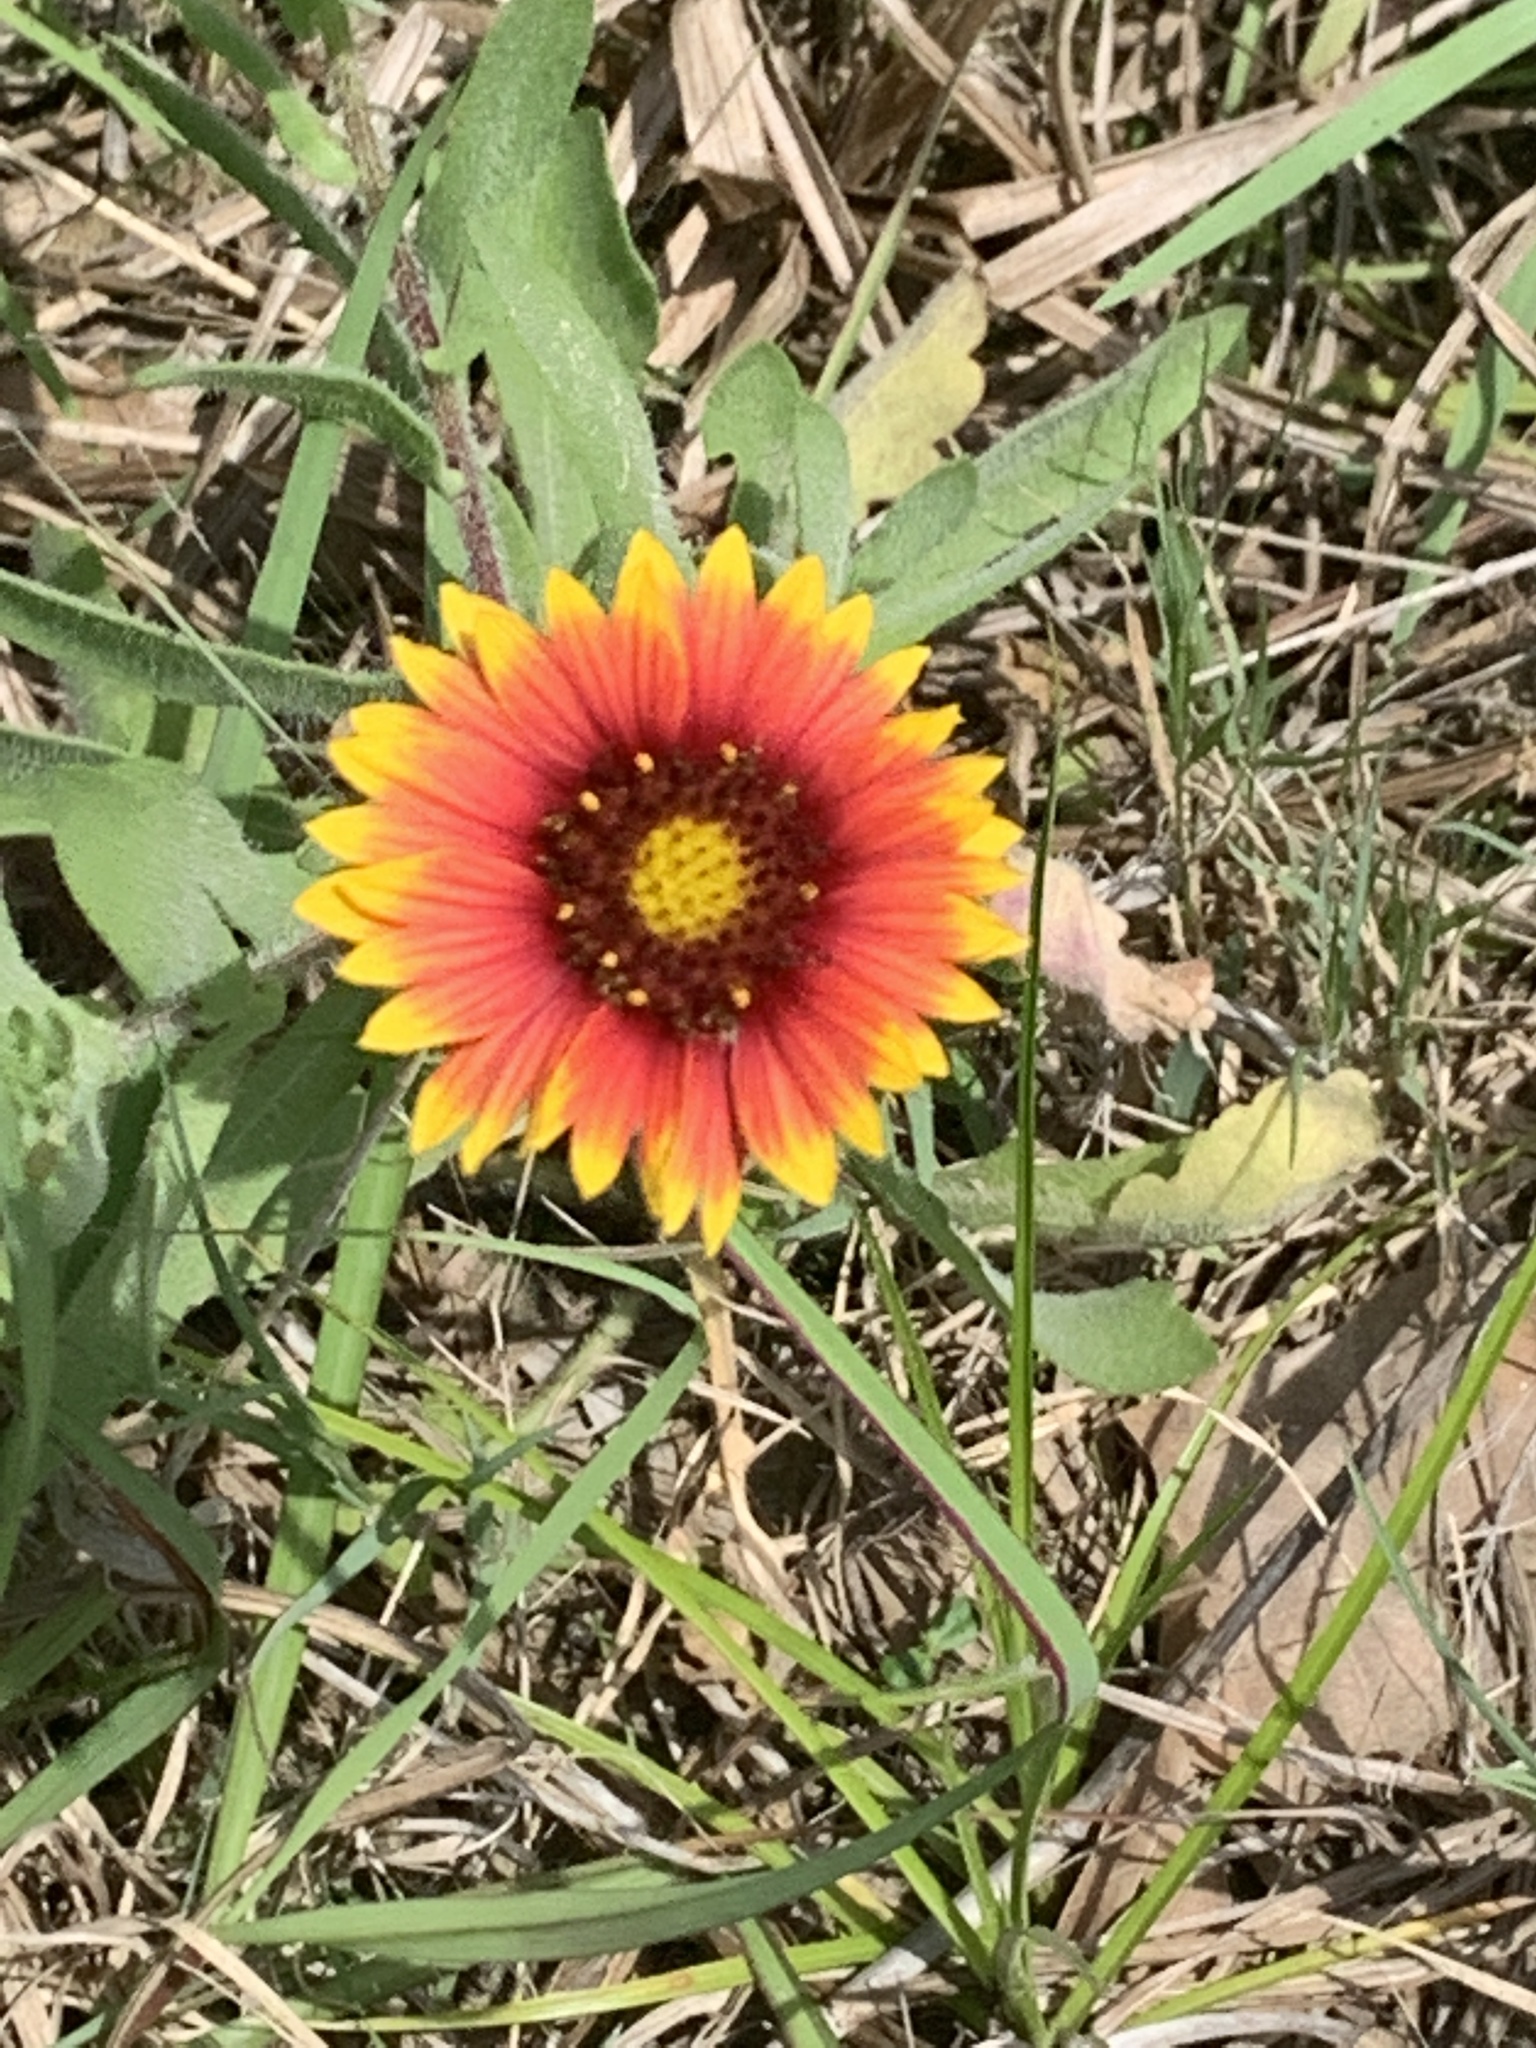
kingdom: Plantae
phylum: Tracheophyta
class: Magnoliopsida
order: Asterales
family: Asteraceae
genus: Gaillardia
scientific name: Gaillardia pulchella
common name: Firewheel
